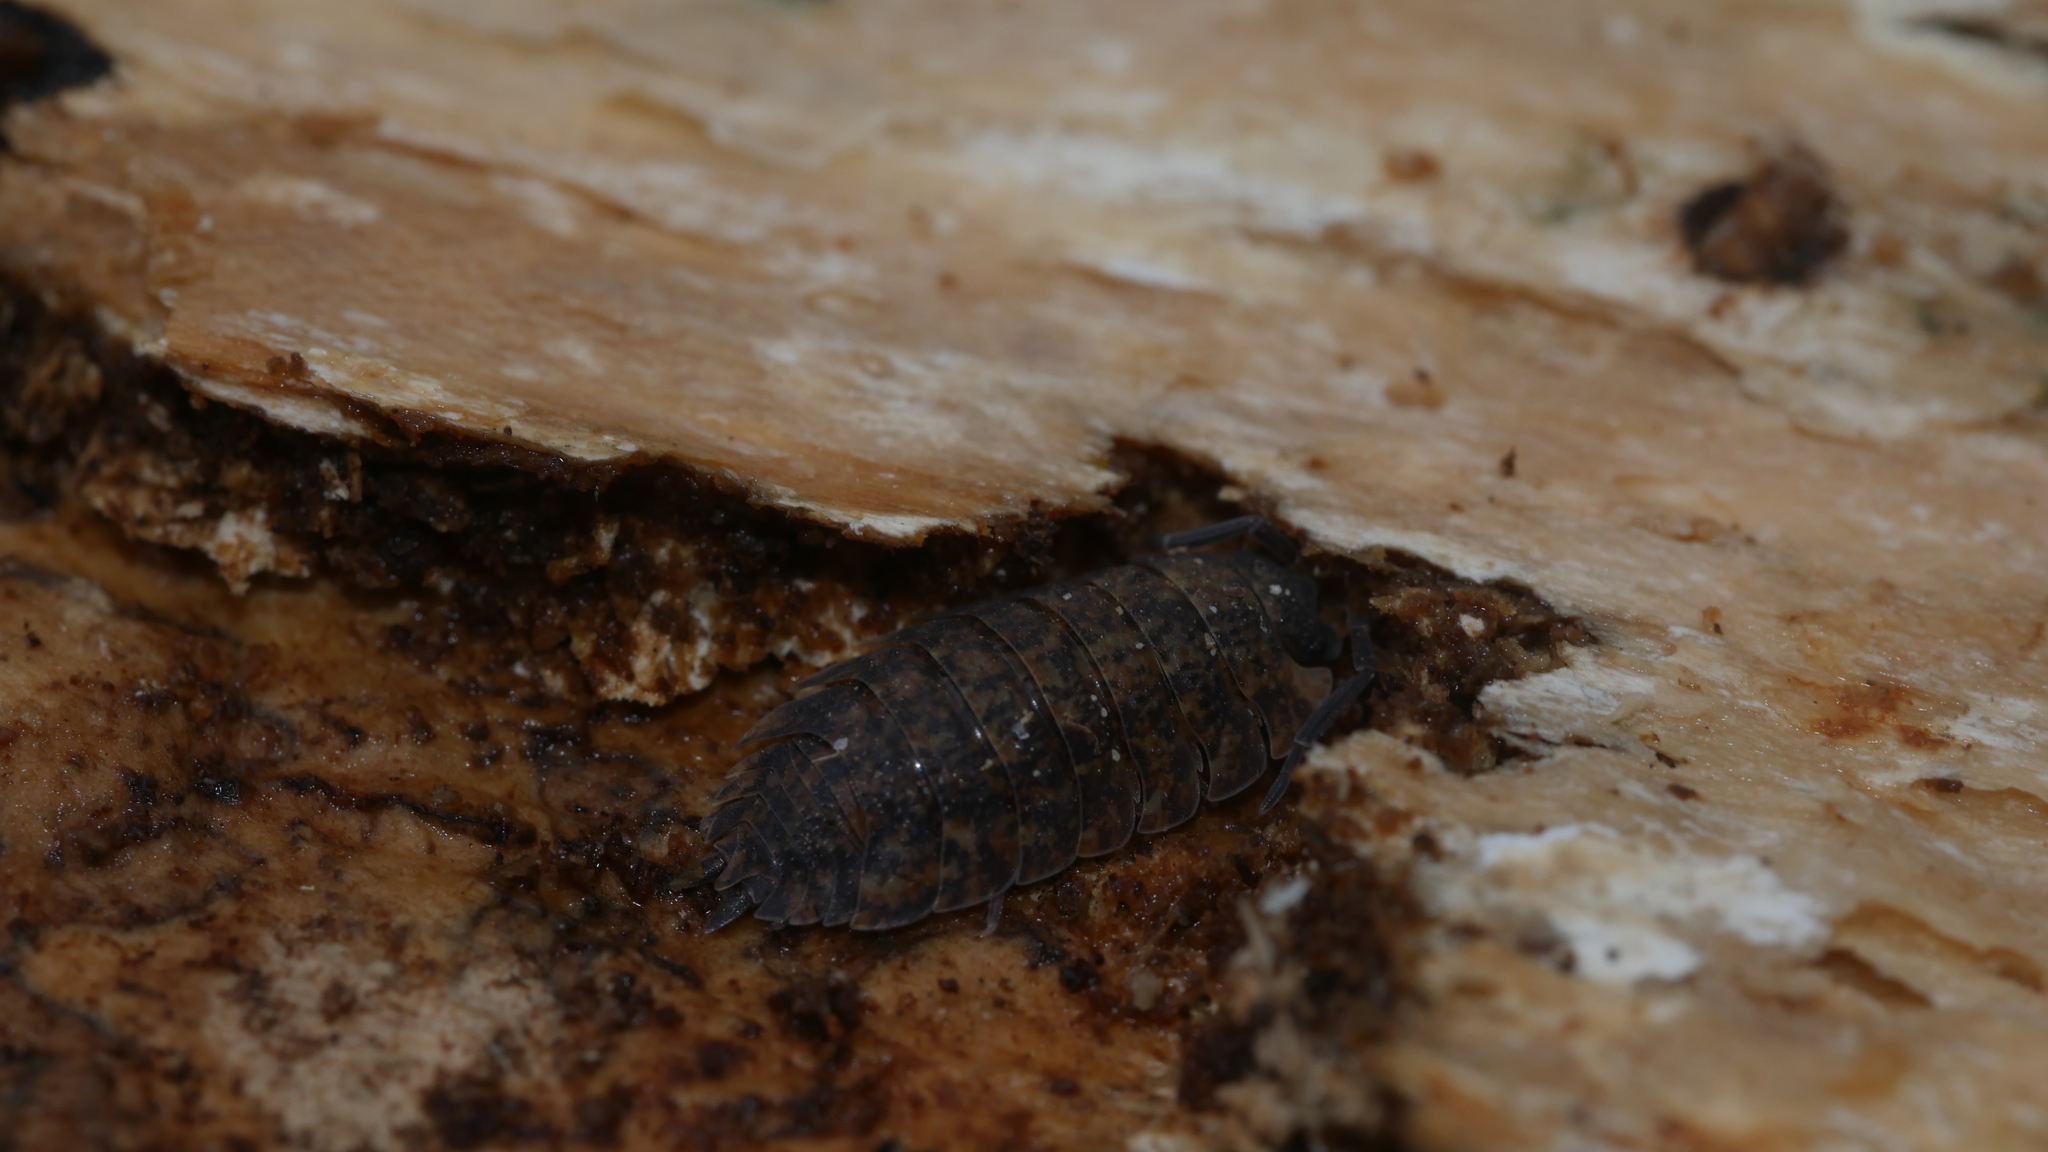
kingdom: Animalia
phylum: Arthropoda
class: Malacostraca
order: Isopoda
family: Porcellionidae
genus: Porcellio
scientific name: Porcellio scaber
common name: Common rough woodlouse
